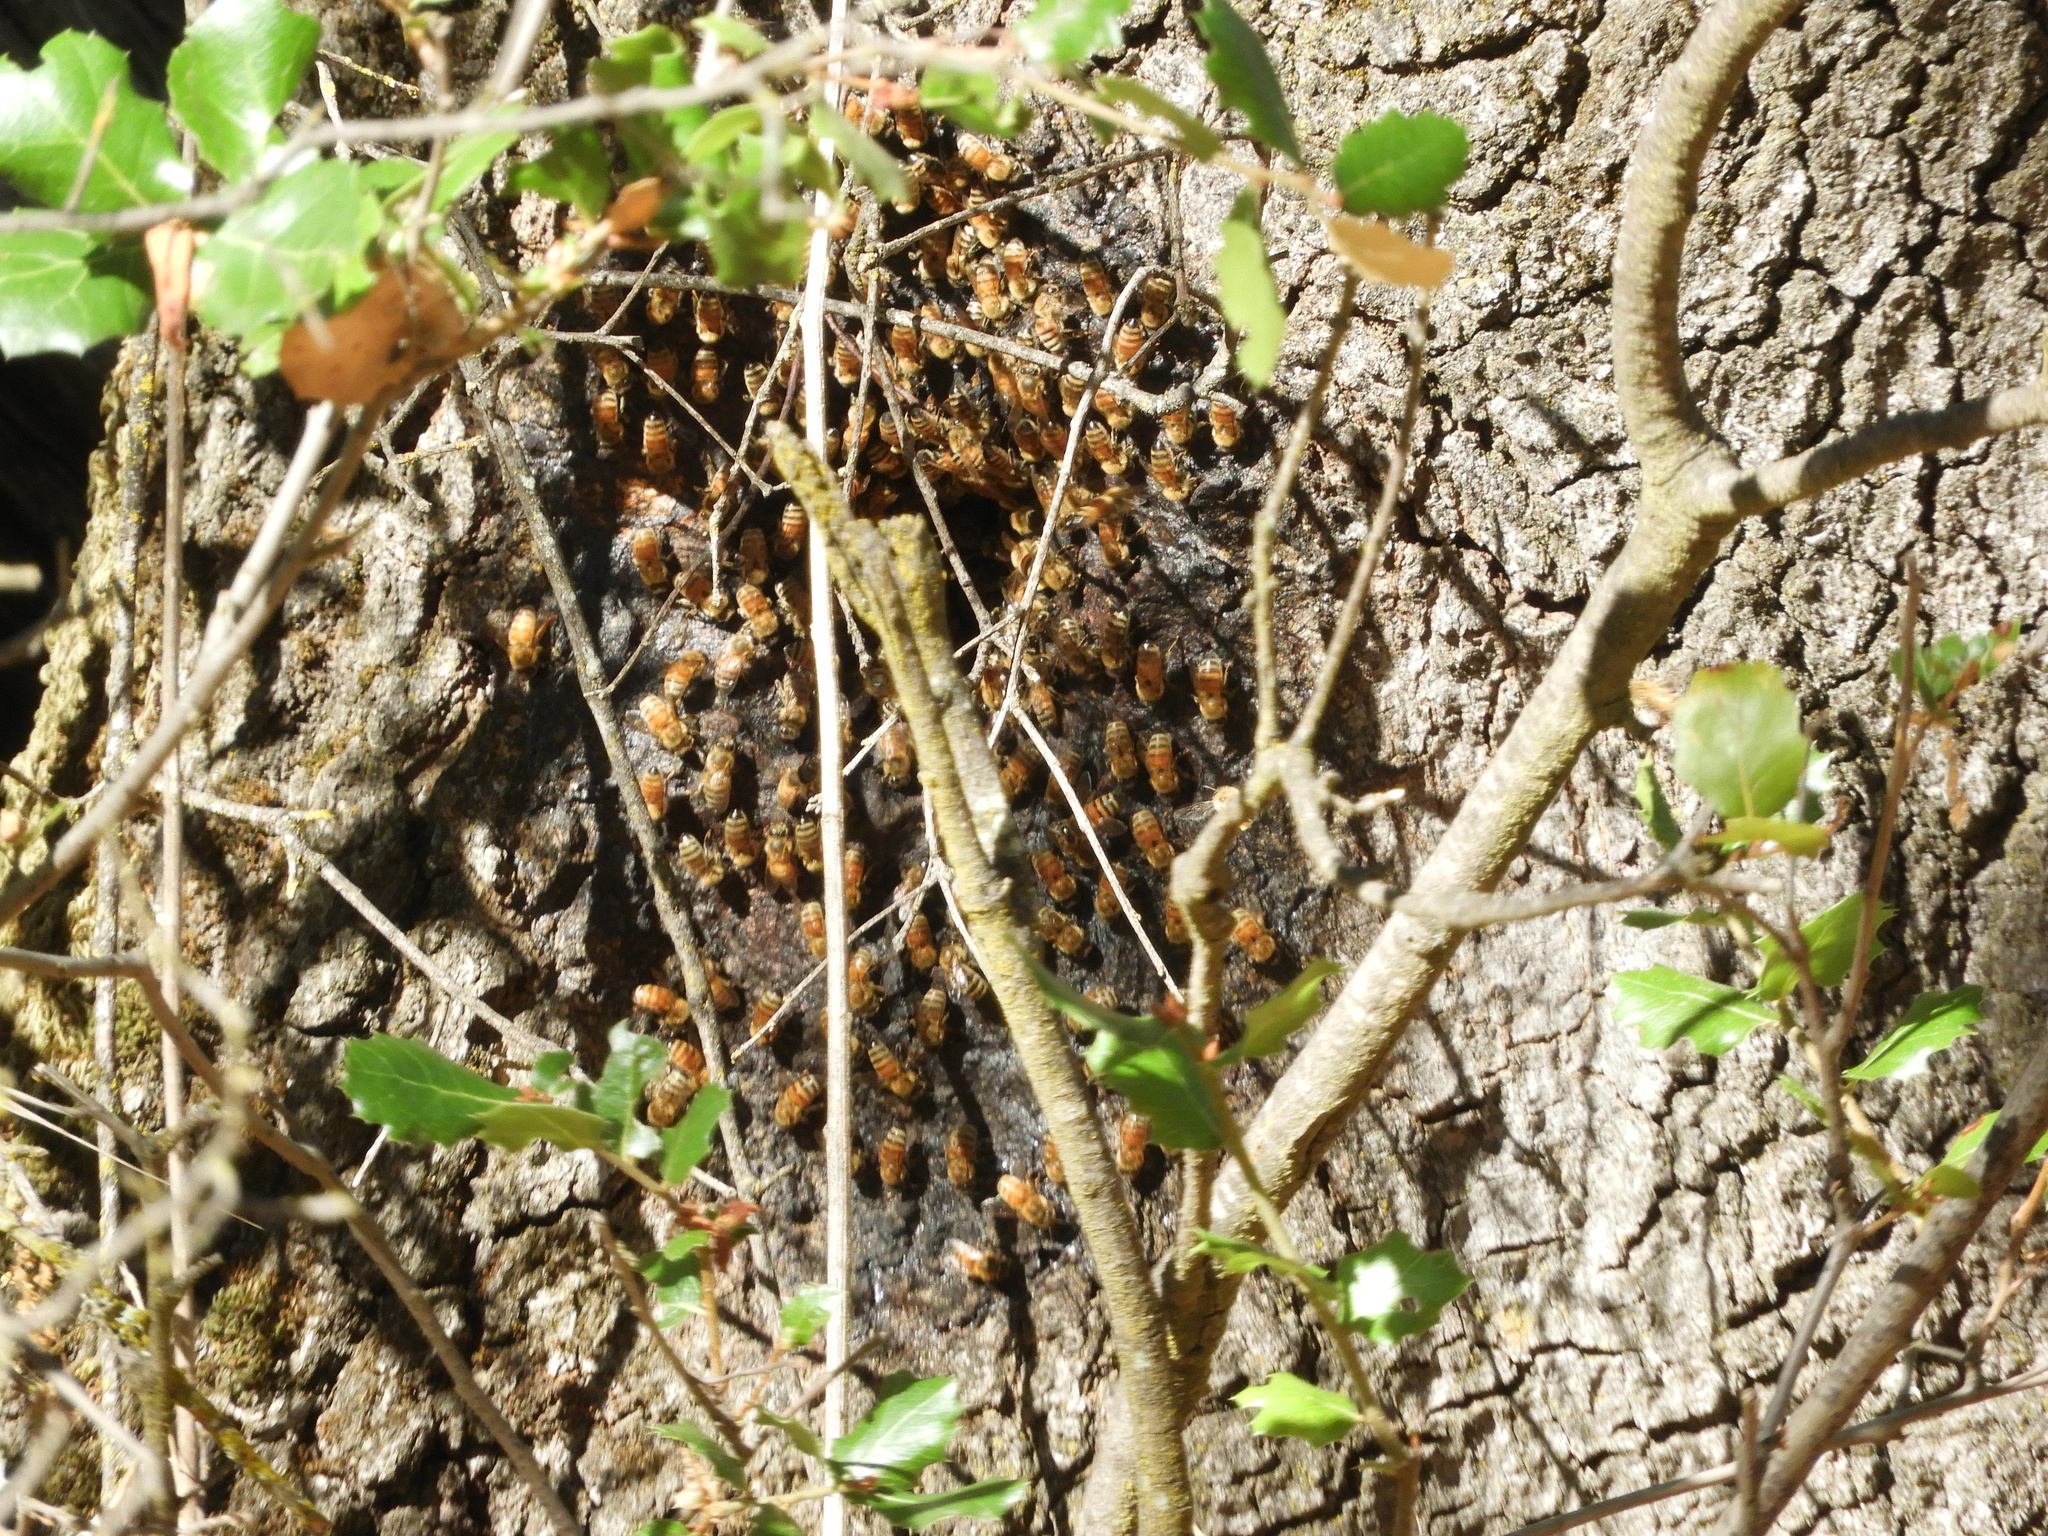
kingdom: Animalia
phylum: Arthropoda
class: Insecta
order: Hymenoptera
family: Apidae
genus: Apis
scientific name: Apis mellifera
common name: Honey bee
